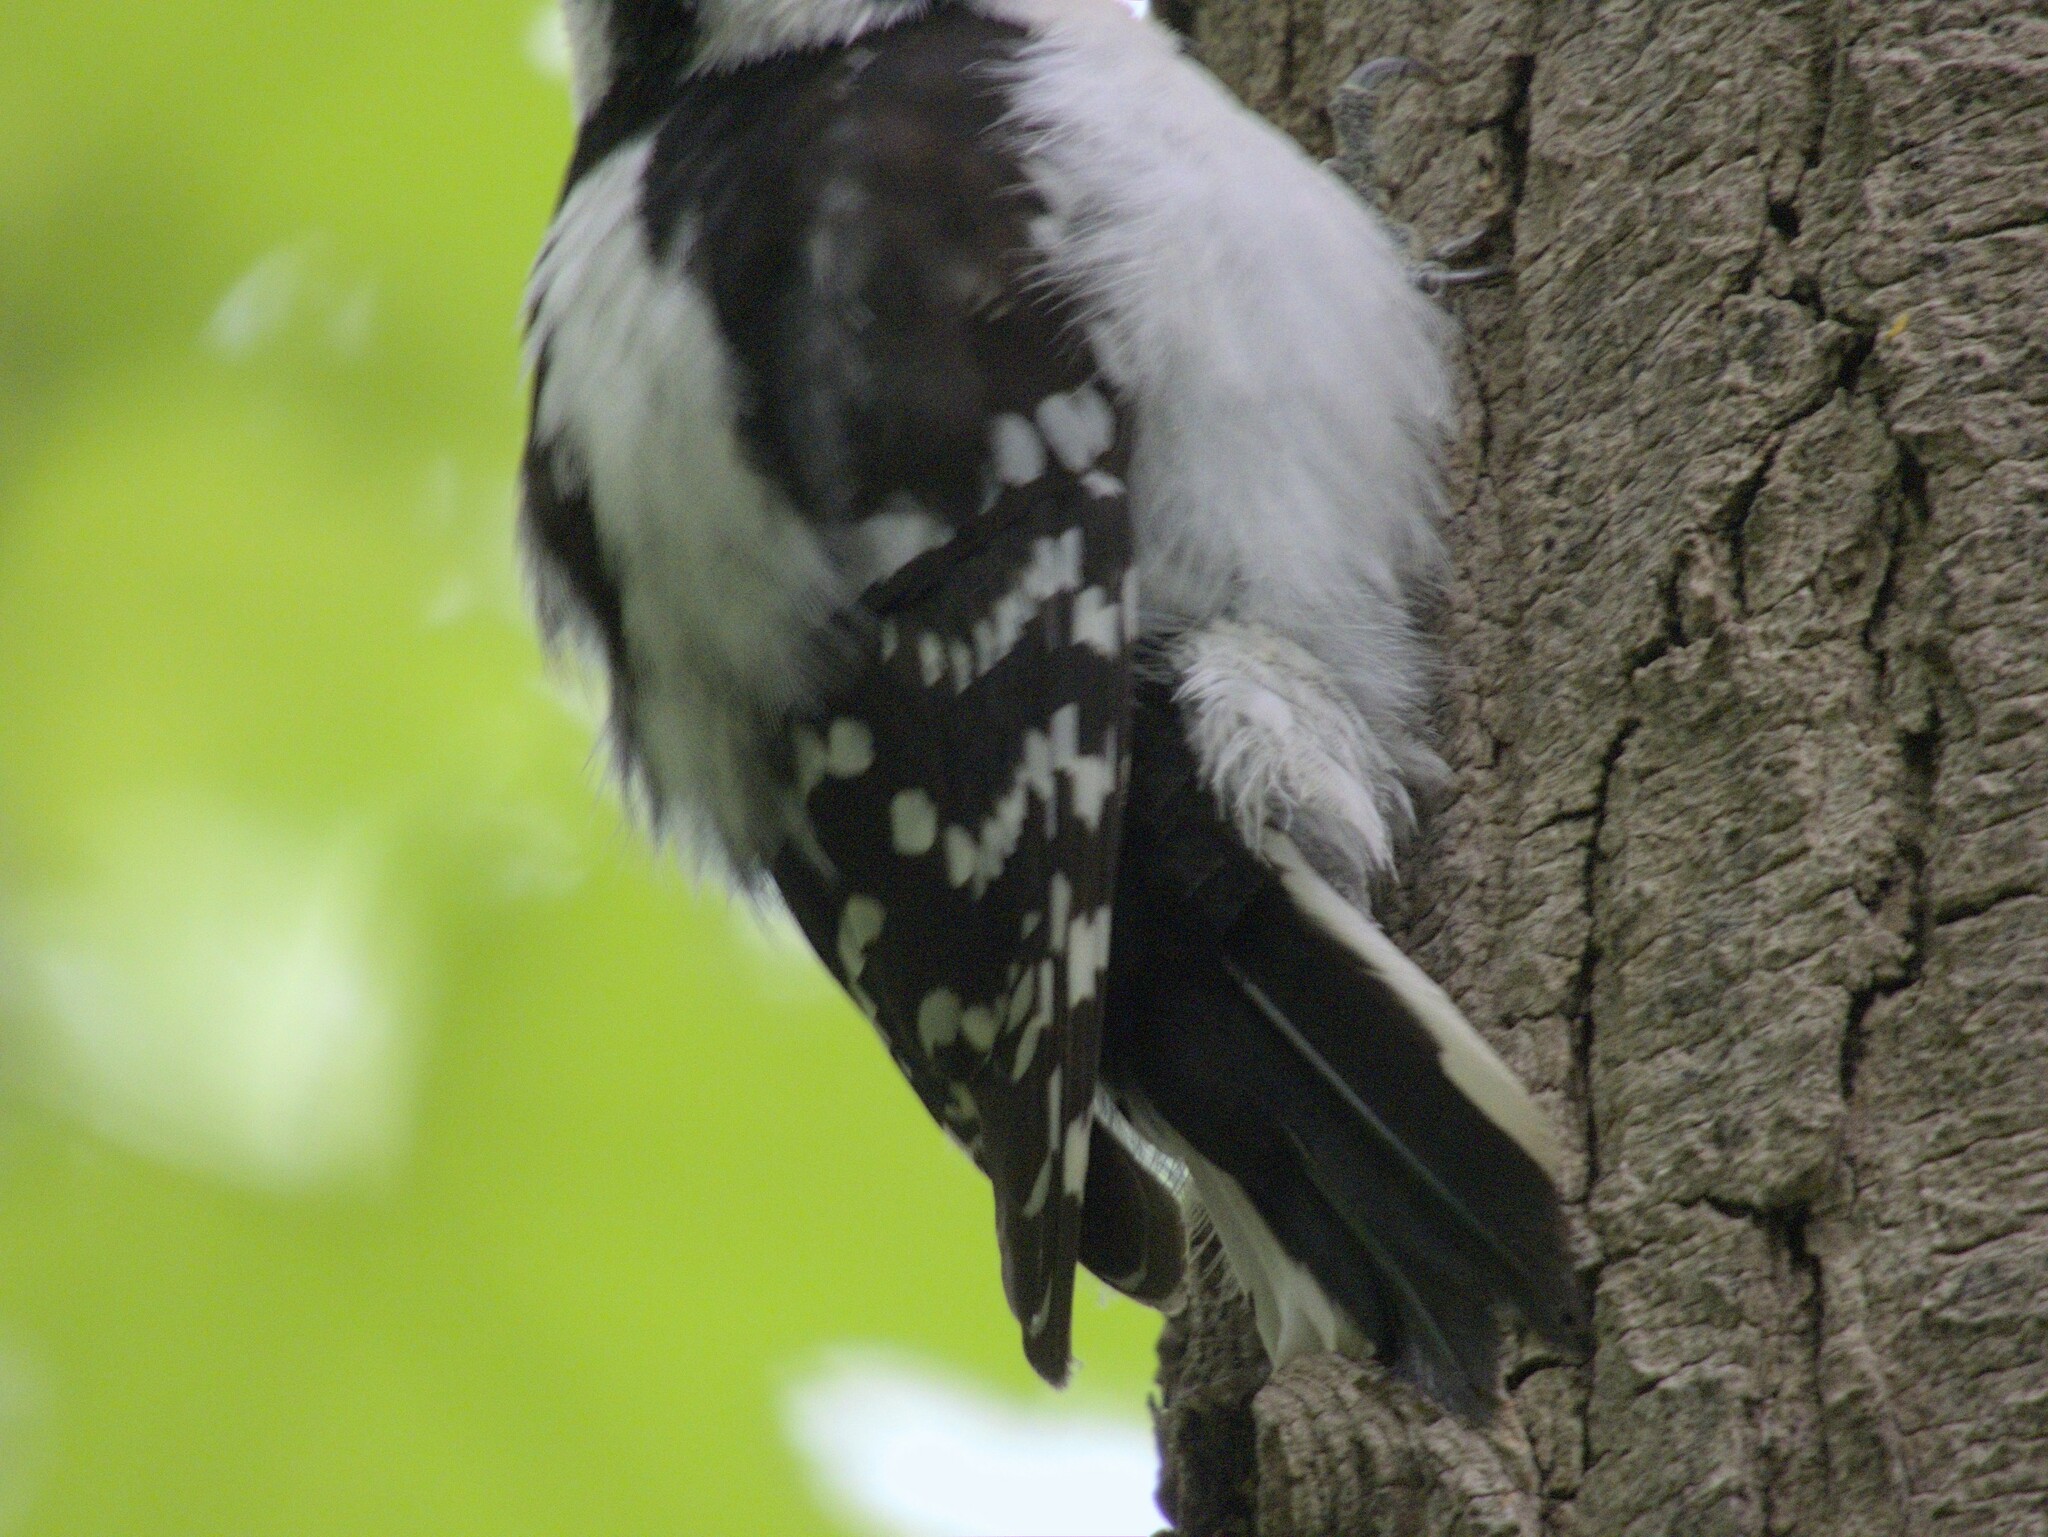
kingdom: Animalia
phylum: Chordata
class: Aves
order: Piciformes
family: Picidae
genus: Dryobates
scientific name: Dryobates pubescens
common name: Downy woodpecker
